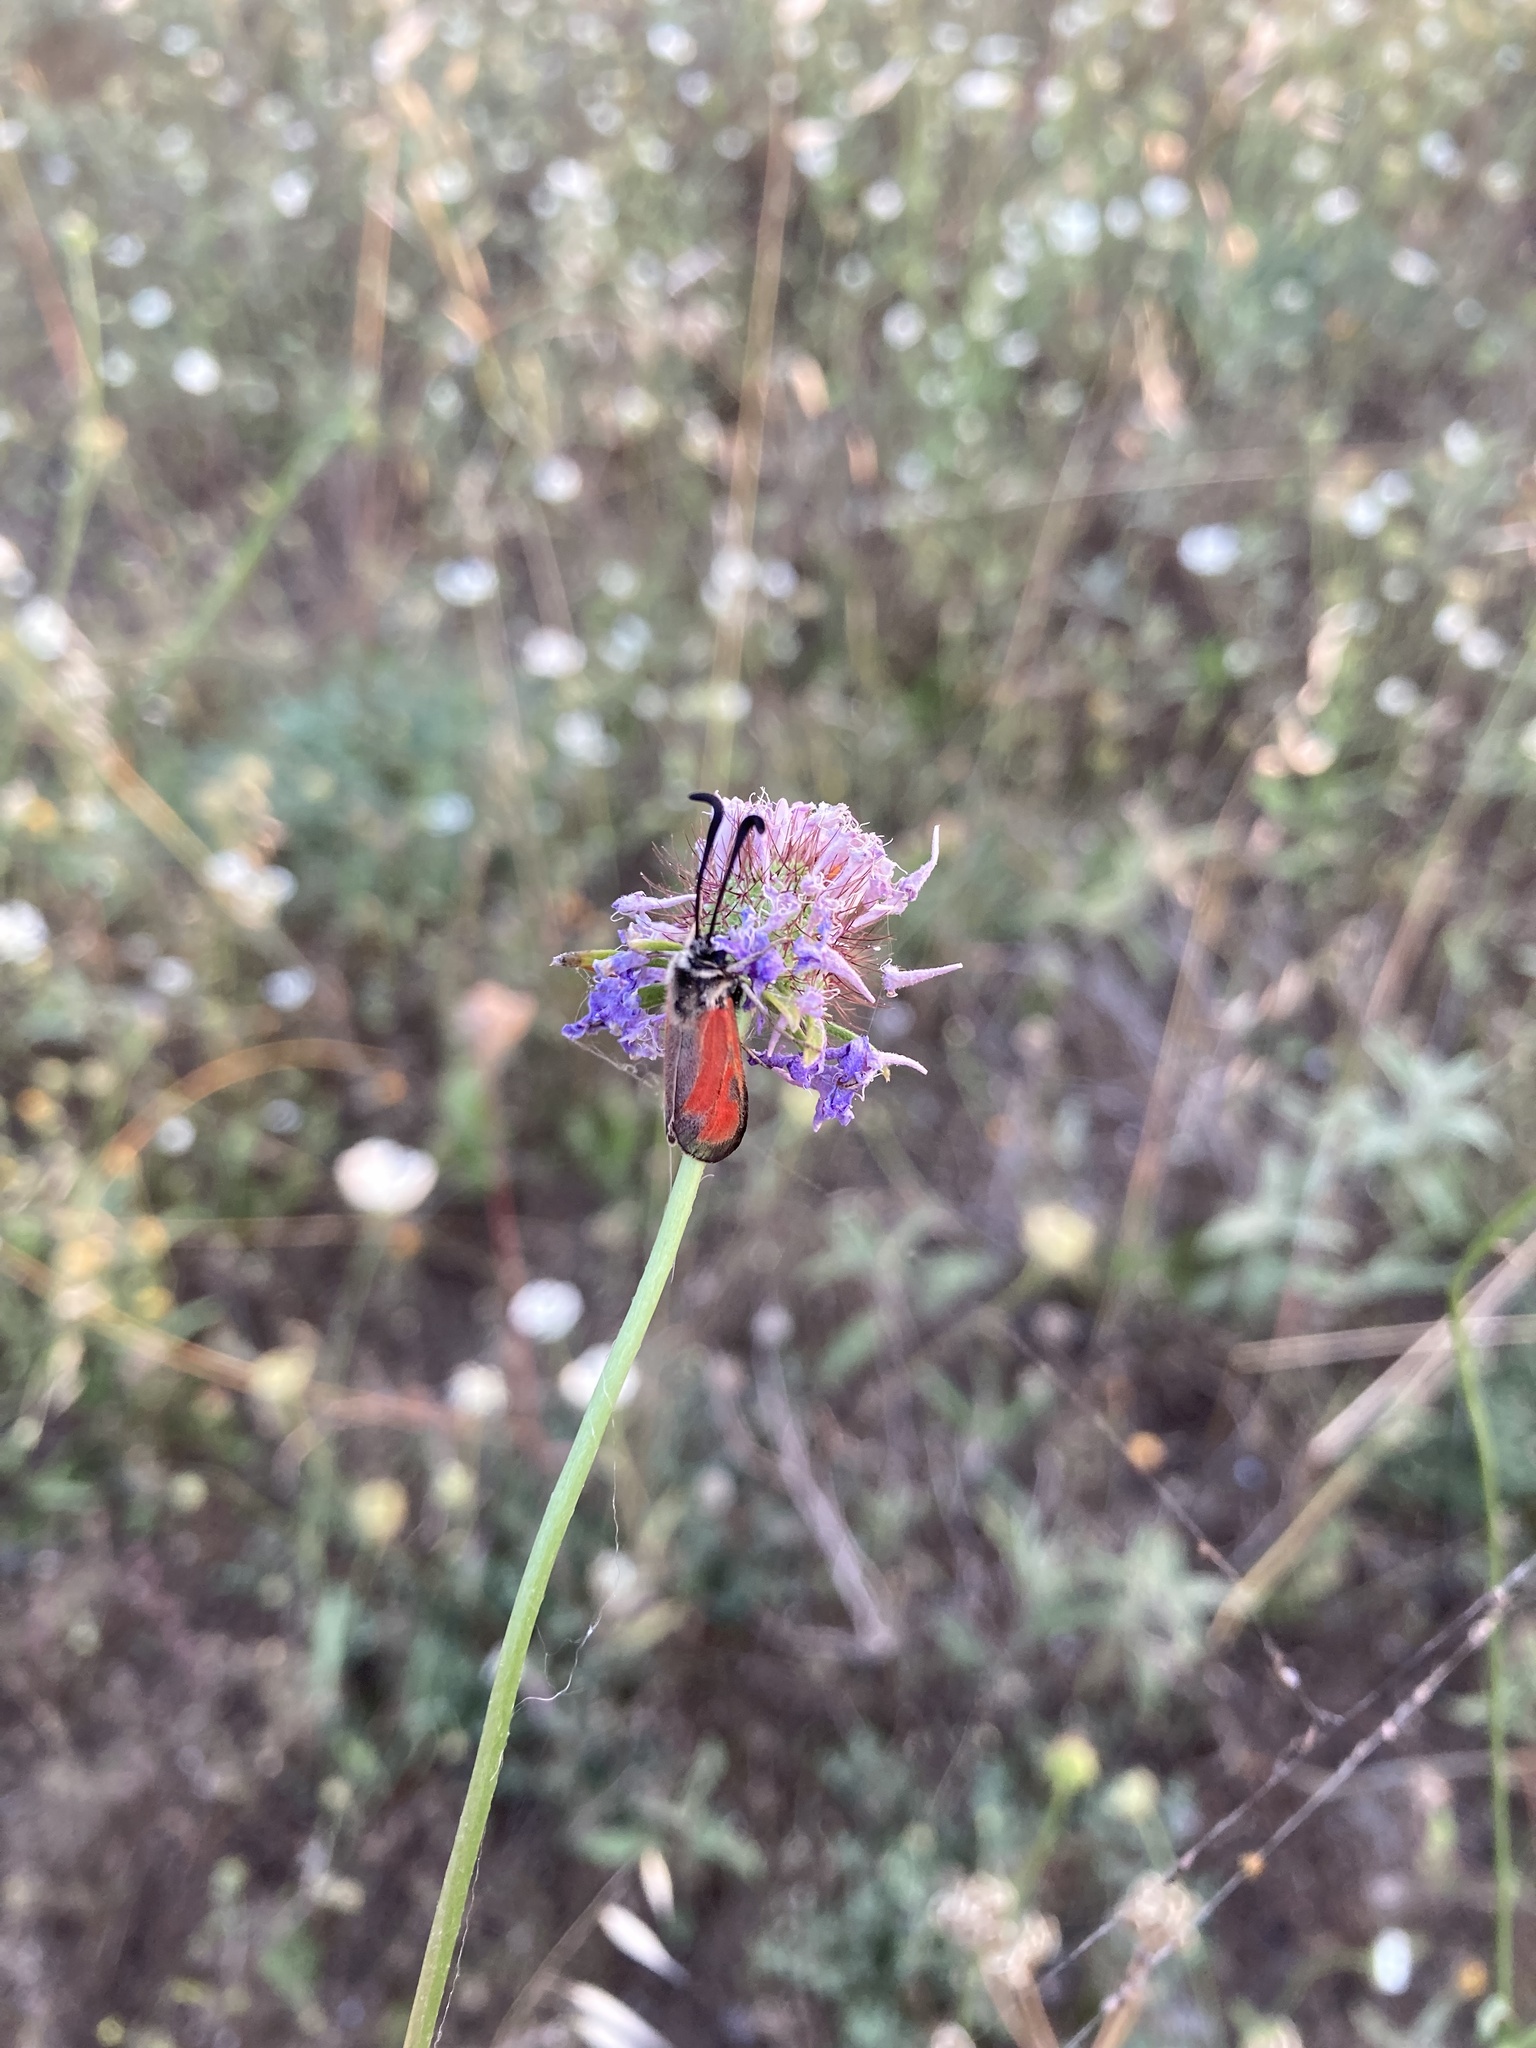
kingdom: Animalia
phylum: Arthropoda
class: Insecta
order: Lepidoptera
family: Zygaenidae
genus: Zygaena
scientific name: Zygaena punctum
